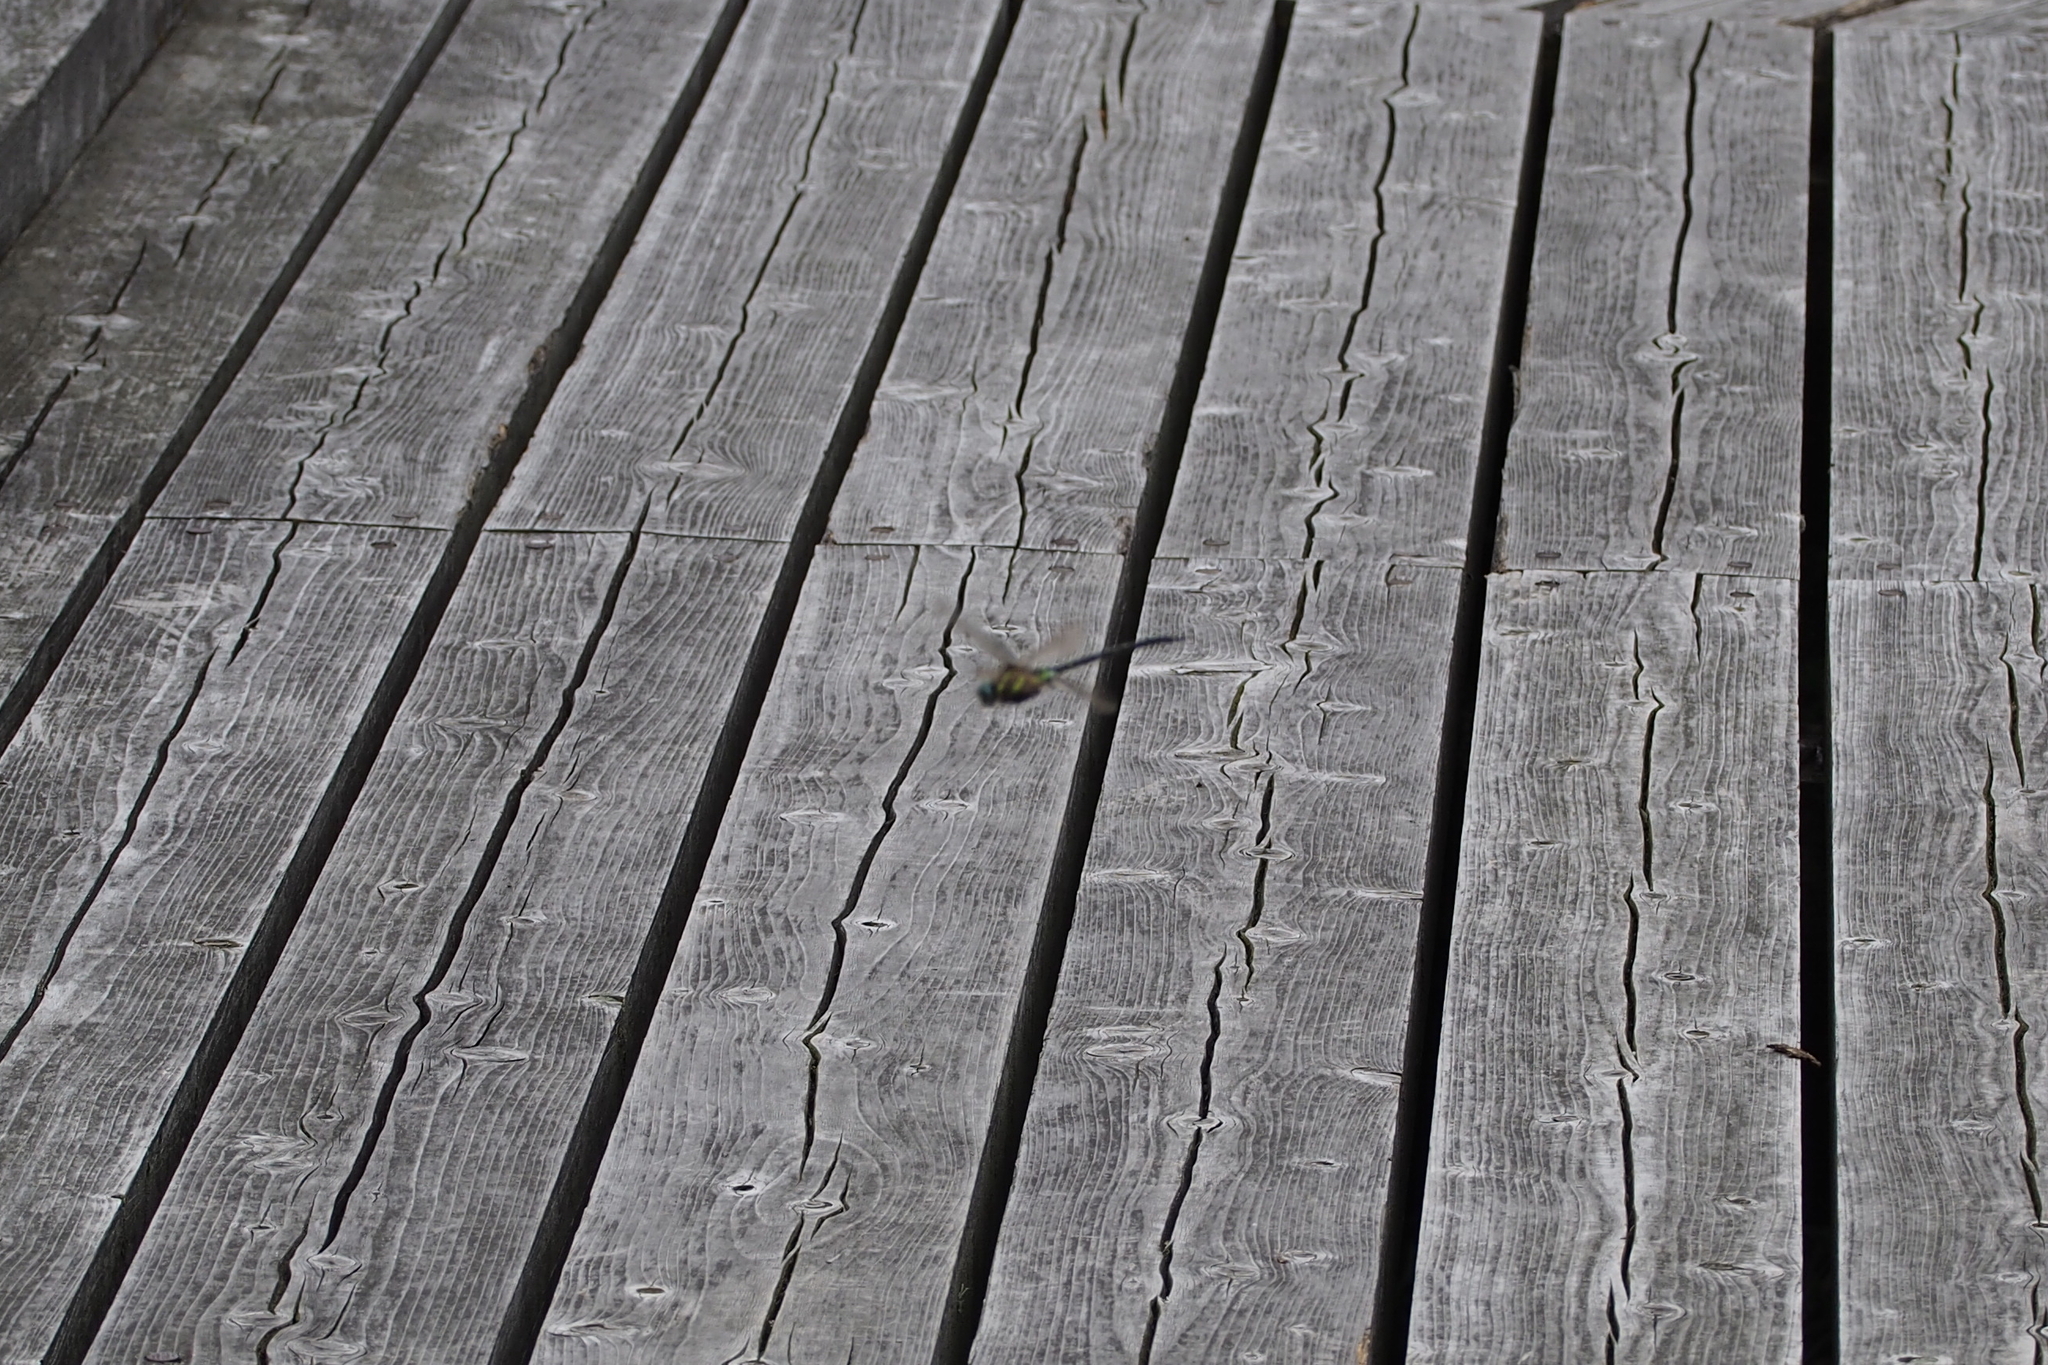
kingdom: Animalia
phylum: Arthropoda
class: Insecta
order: Odonata
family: Aeshnidae
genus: Aeshna
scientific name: Aeshna juncea
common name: Moorland hawker
